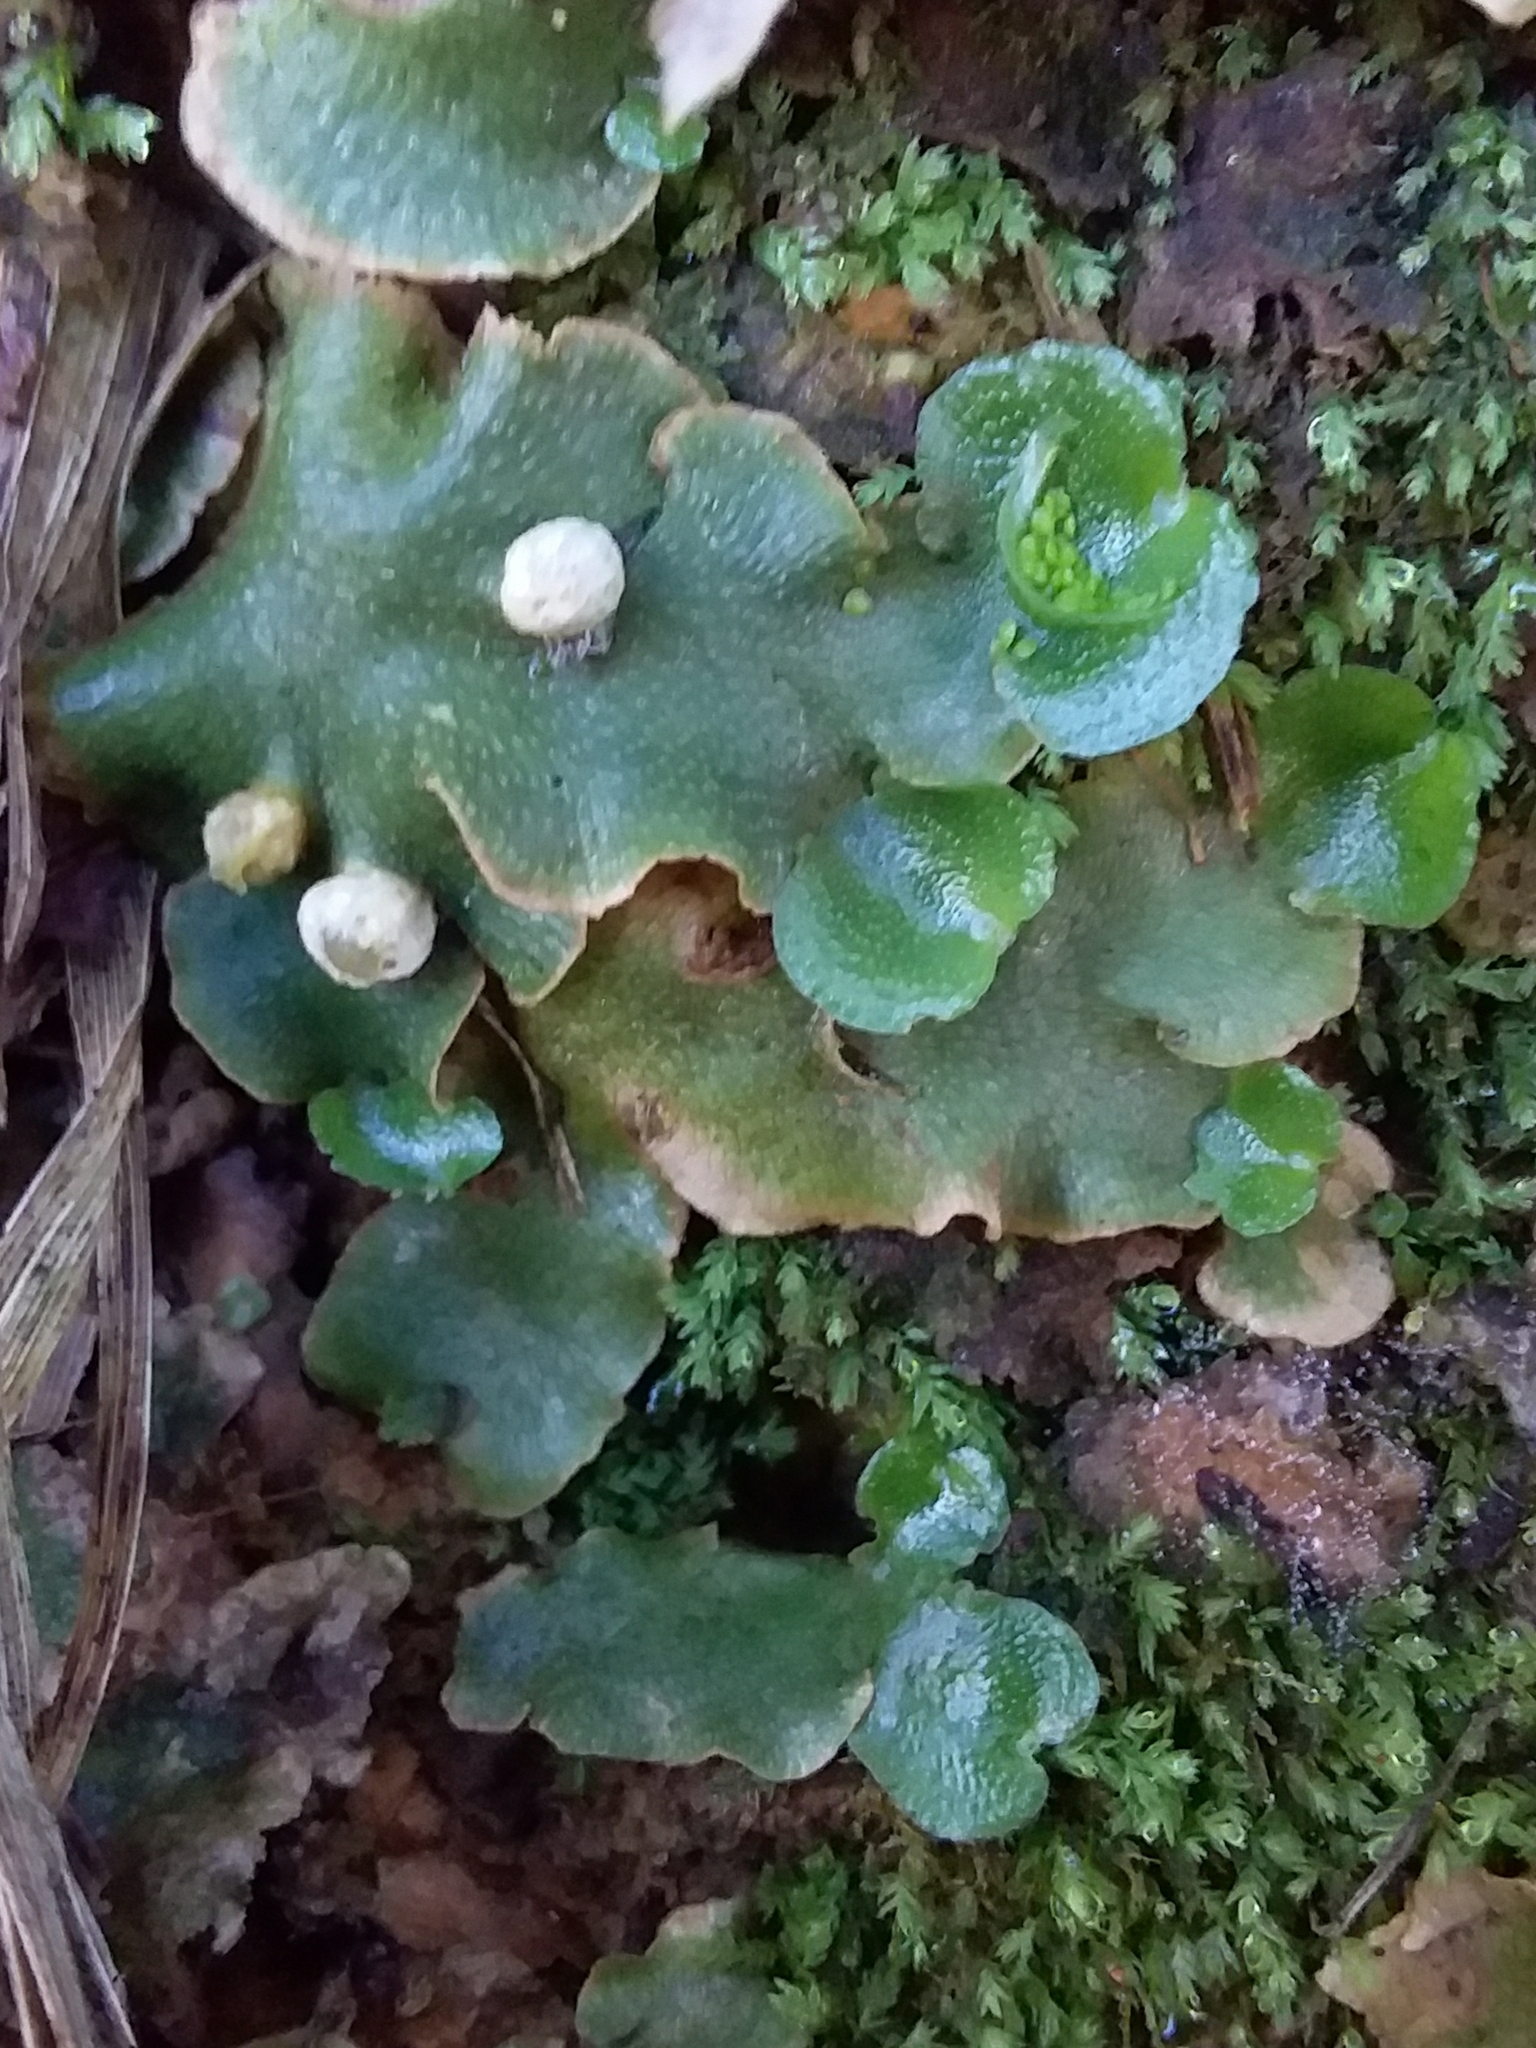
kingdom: Plantae
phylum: Marchantiophyta
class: Marchantiopsida
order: Lunulariales
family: Lunulariaceae
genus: Lunularia
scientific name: Lunularia cruciata
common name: Crescent-cup liverwort
